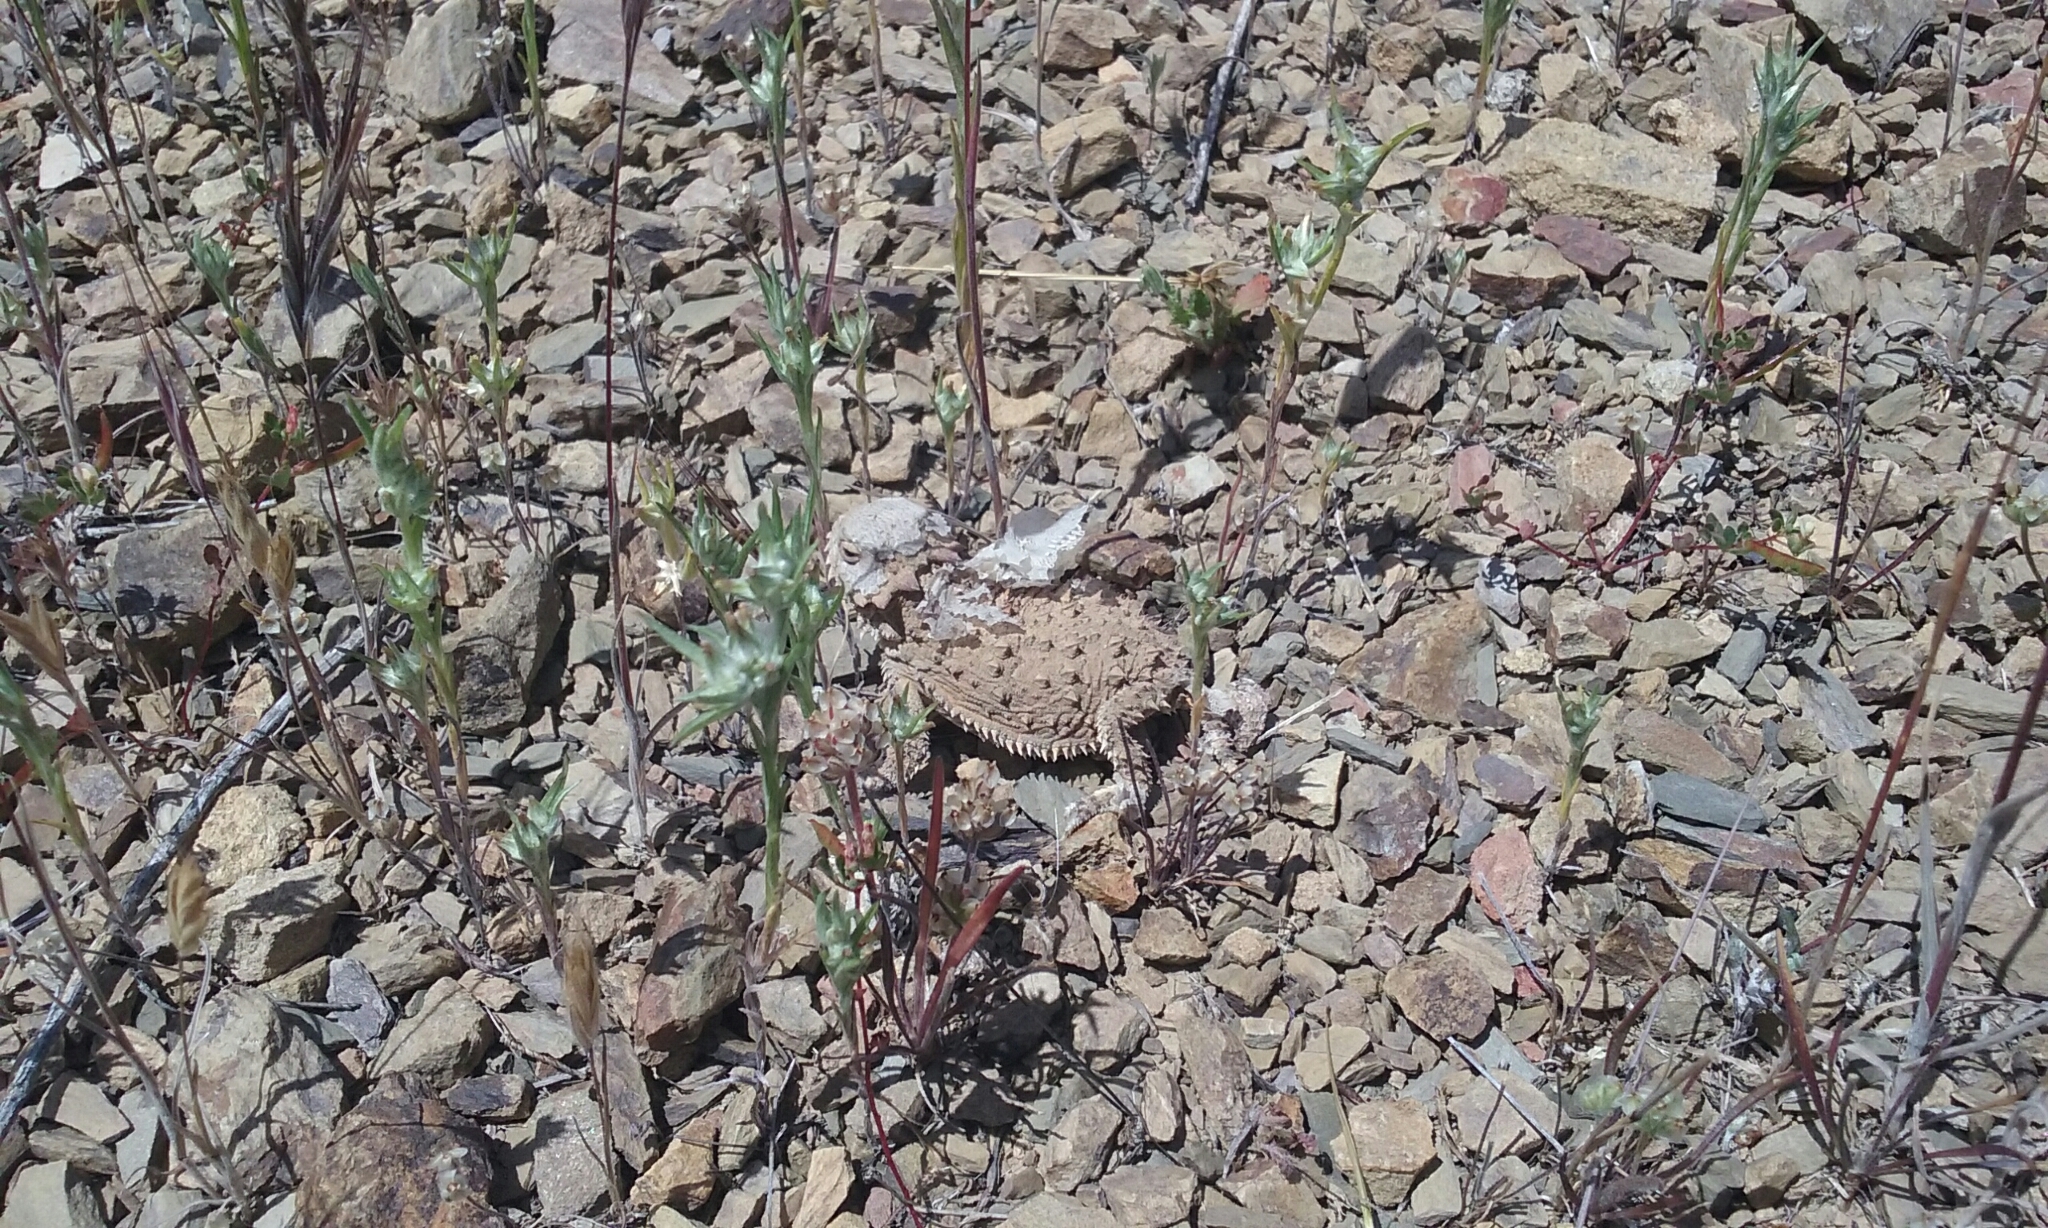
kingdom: Animalia
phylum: Chordata
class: Squamata
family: Phrynosomatidae
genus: Phrynosoma
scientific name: Phrynosoma blainvillii
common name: San diego horned lizard
